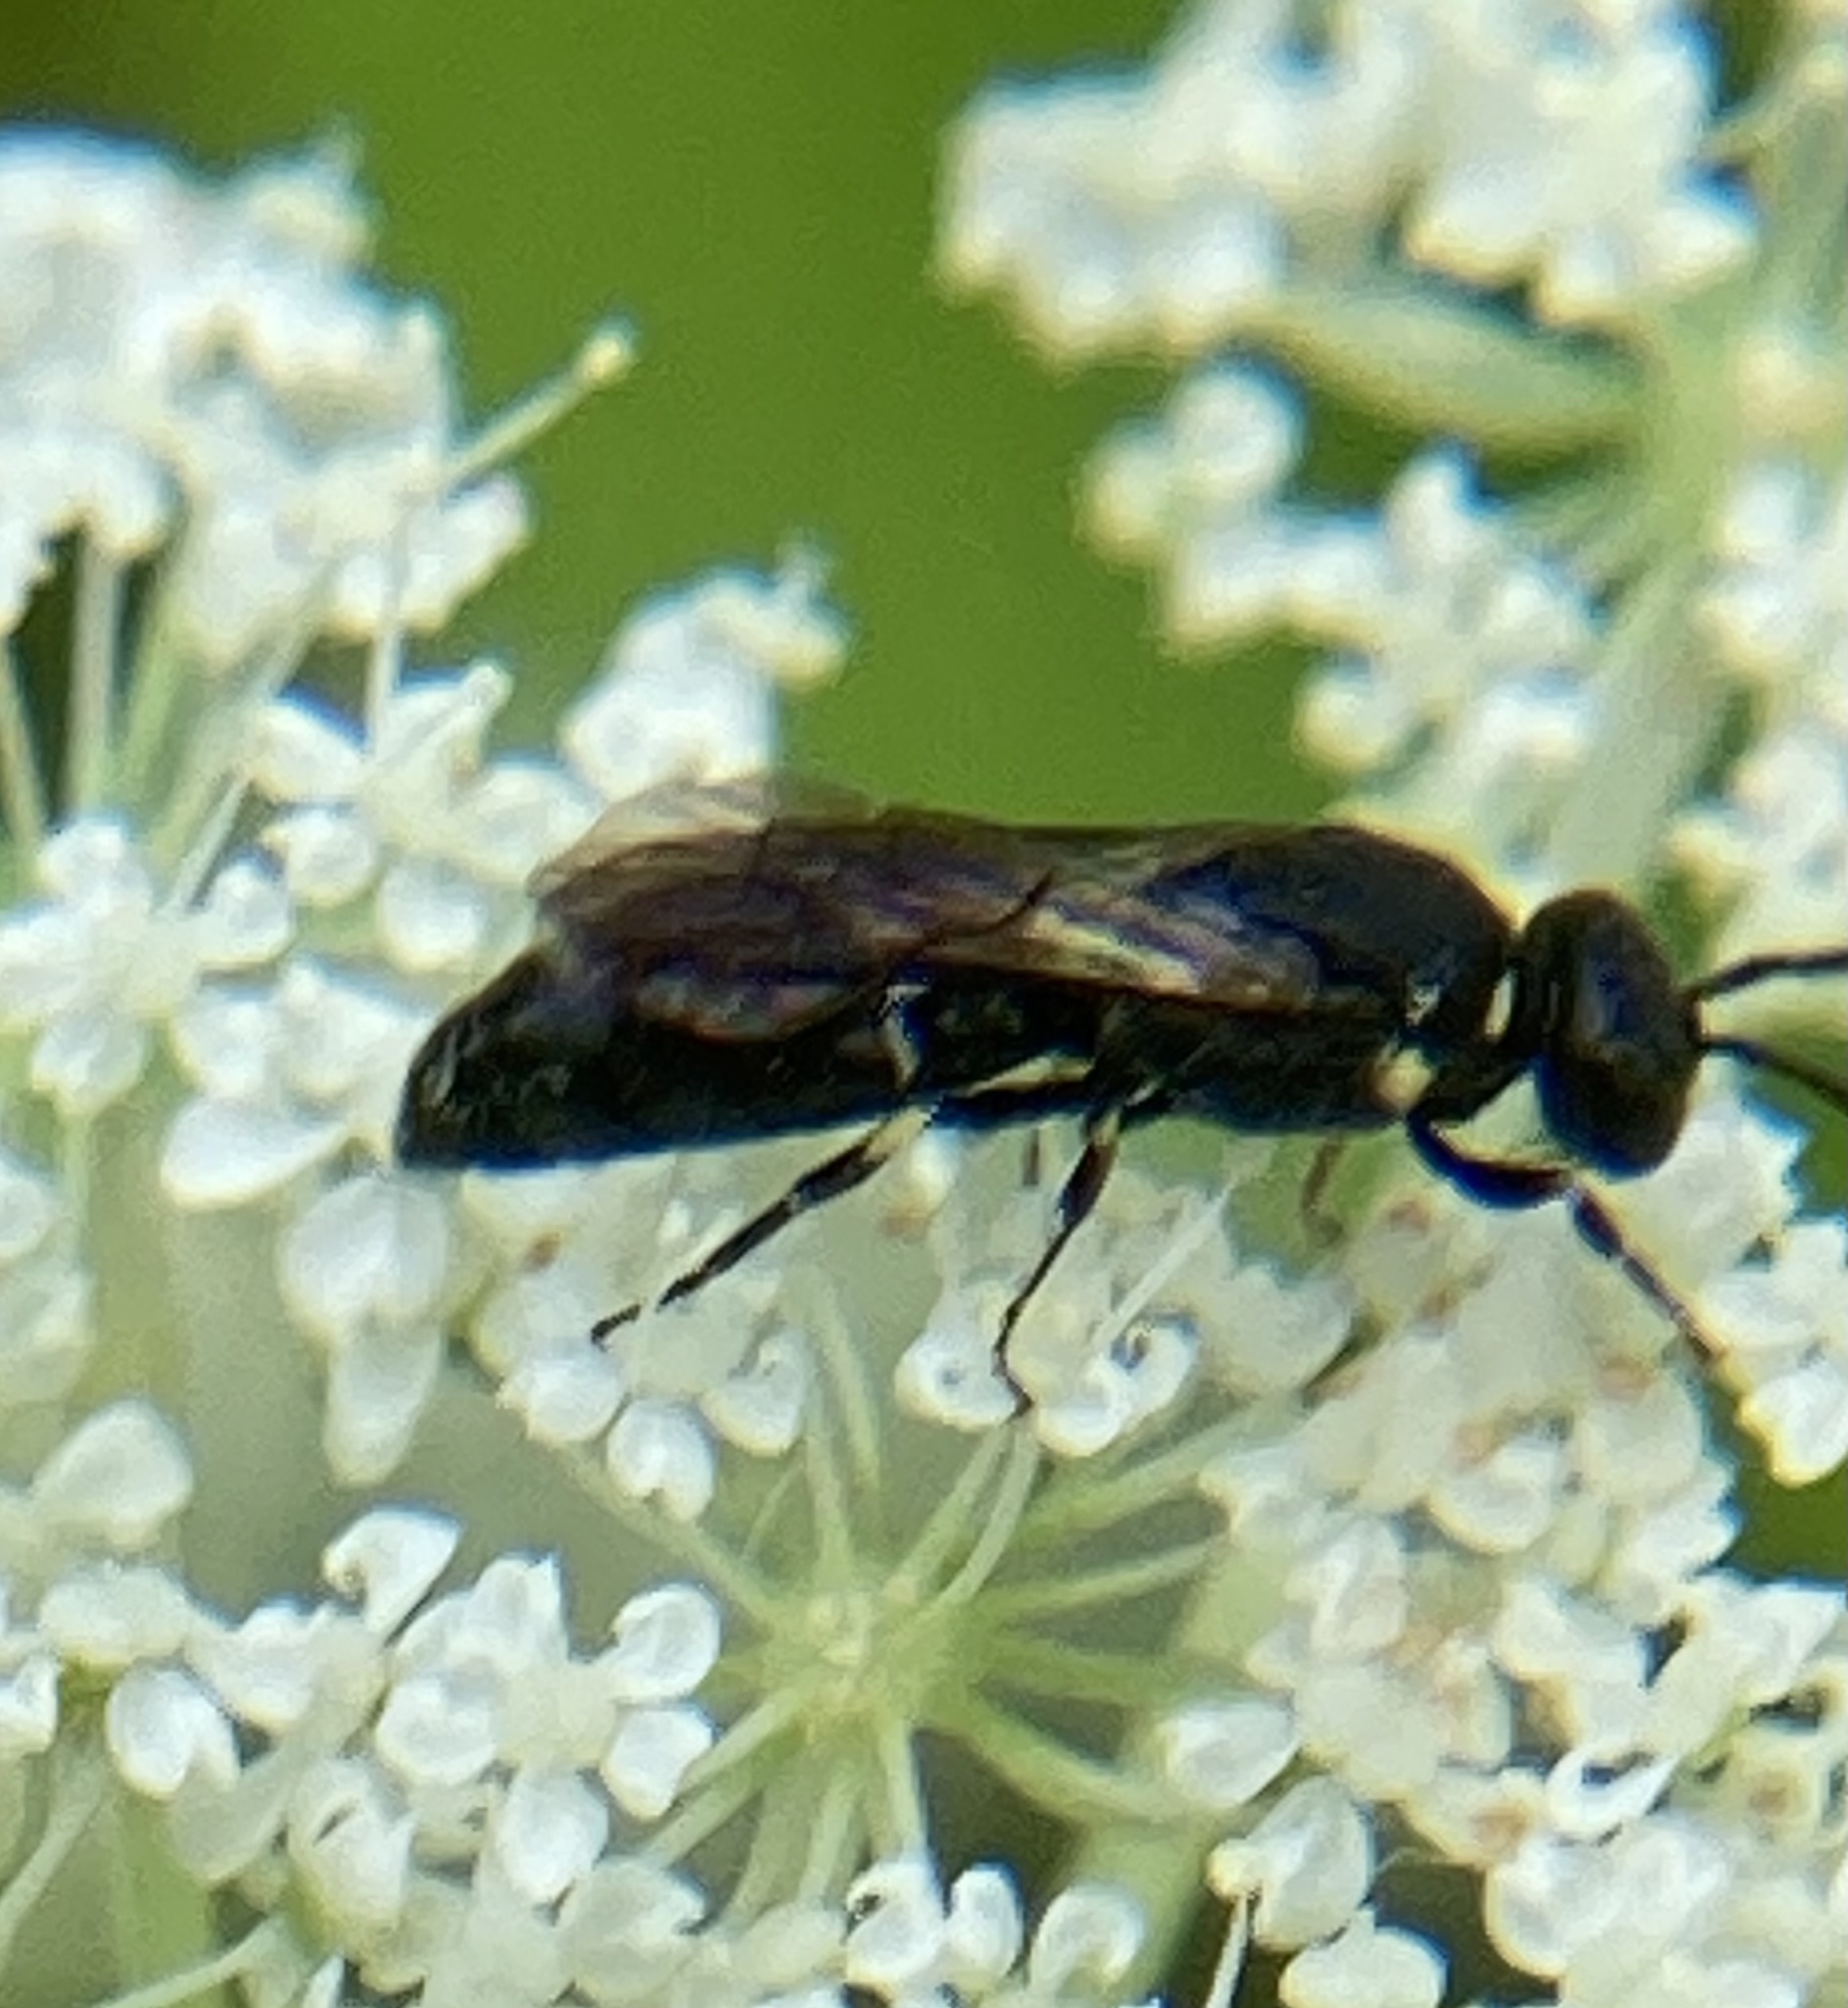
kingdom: Animalia
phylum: Arthropoda
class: Insecta
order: Hymenoptera
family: Colletidae
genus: Hylaeus
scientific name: Hylaeus modestus
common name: Yellow-faced bee
